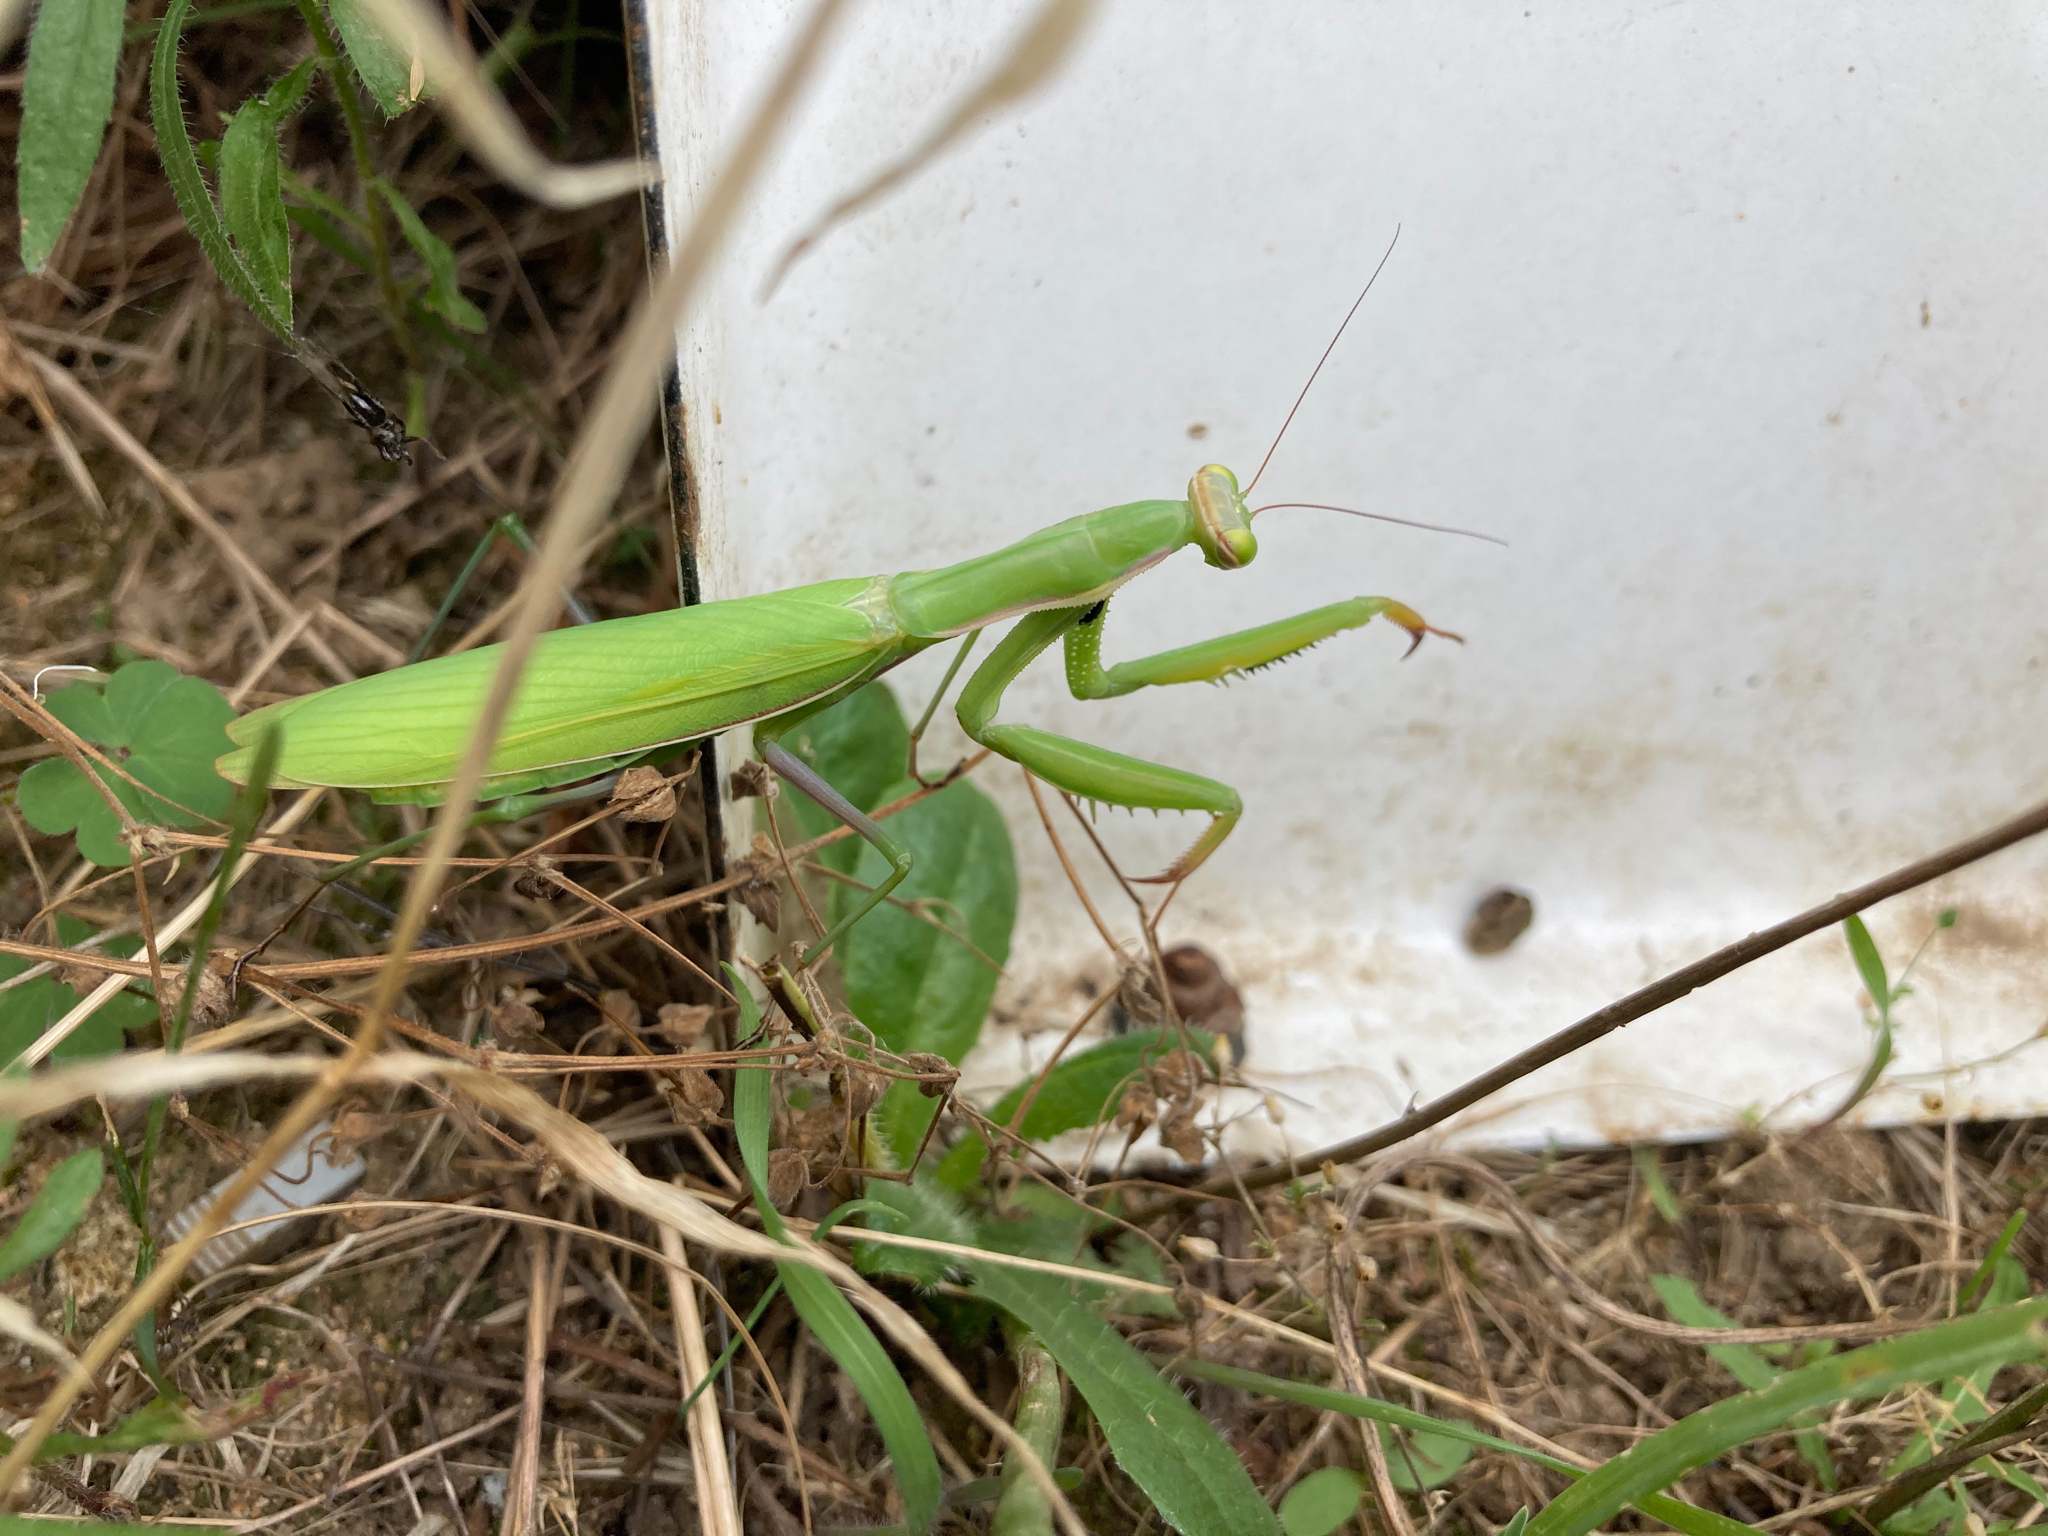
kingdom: Animalia
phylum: Arthropoda
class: Insecta
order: Mantodea
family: Mantidae
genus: Mantis
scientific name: Mantis religiosa
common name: Praying mantis
